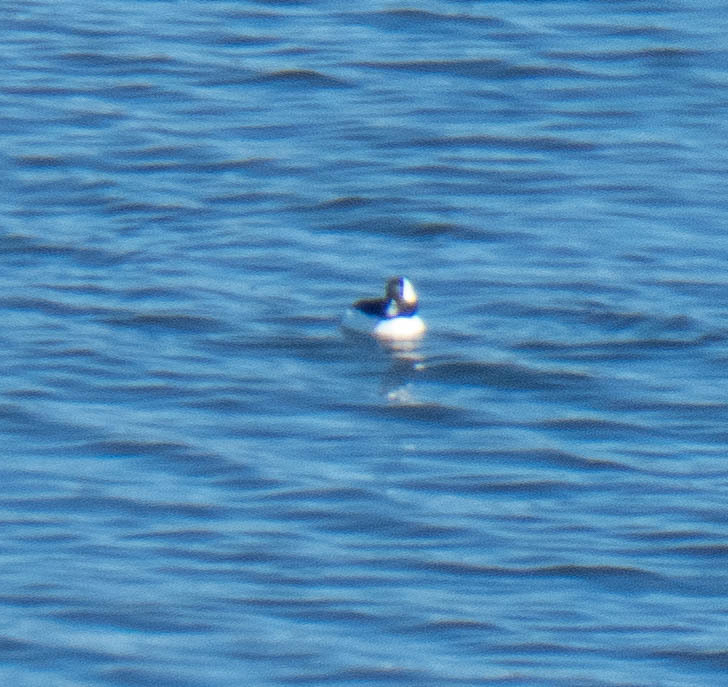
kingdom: Animalia
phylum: Chordata
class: Aves
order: Anseriformes
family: Anatidae
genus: Bucephala
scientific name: Bucephala albeola
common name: Bufflehead
